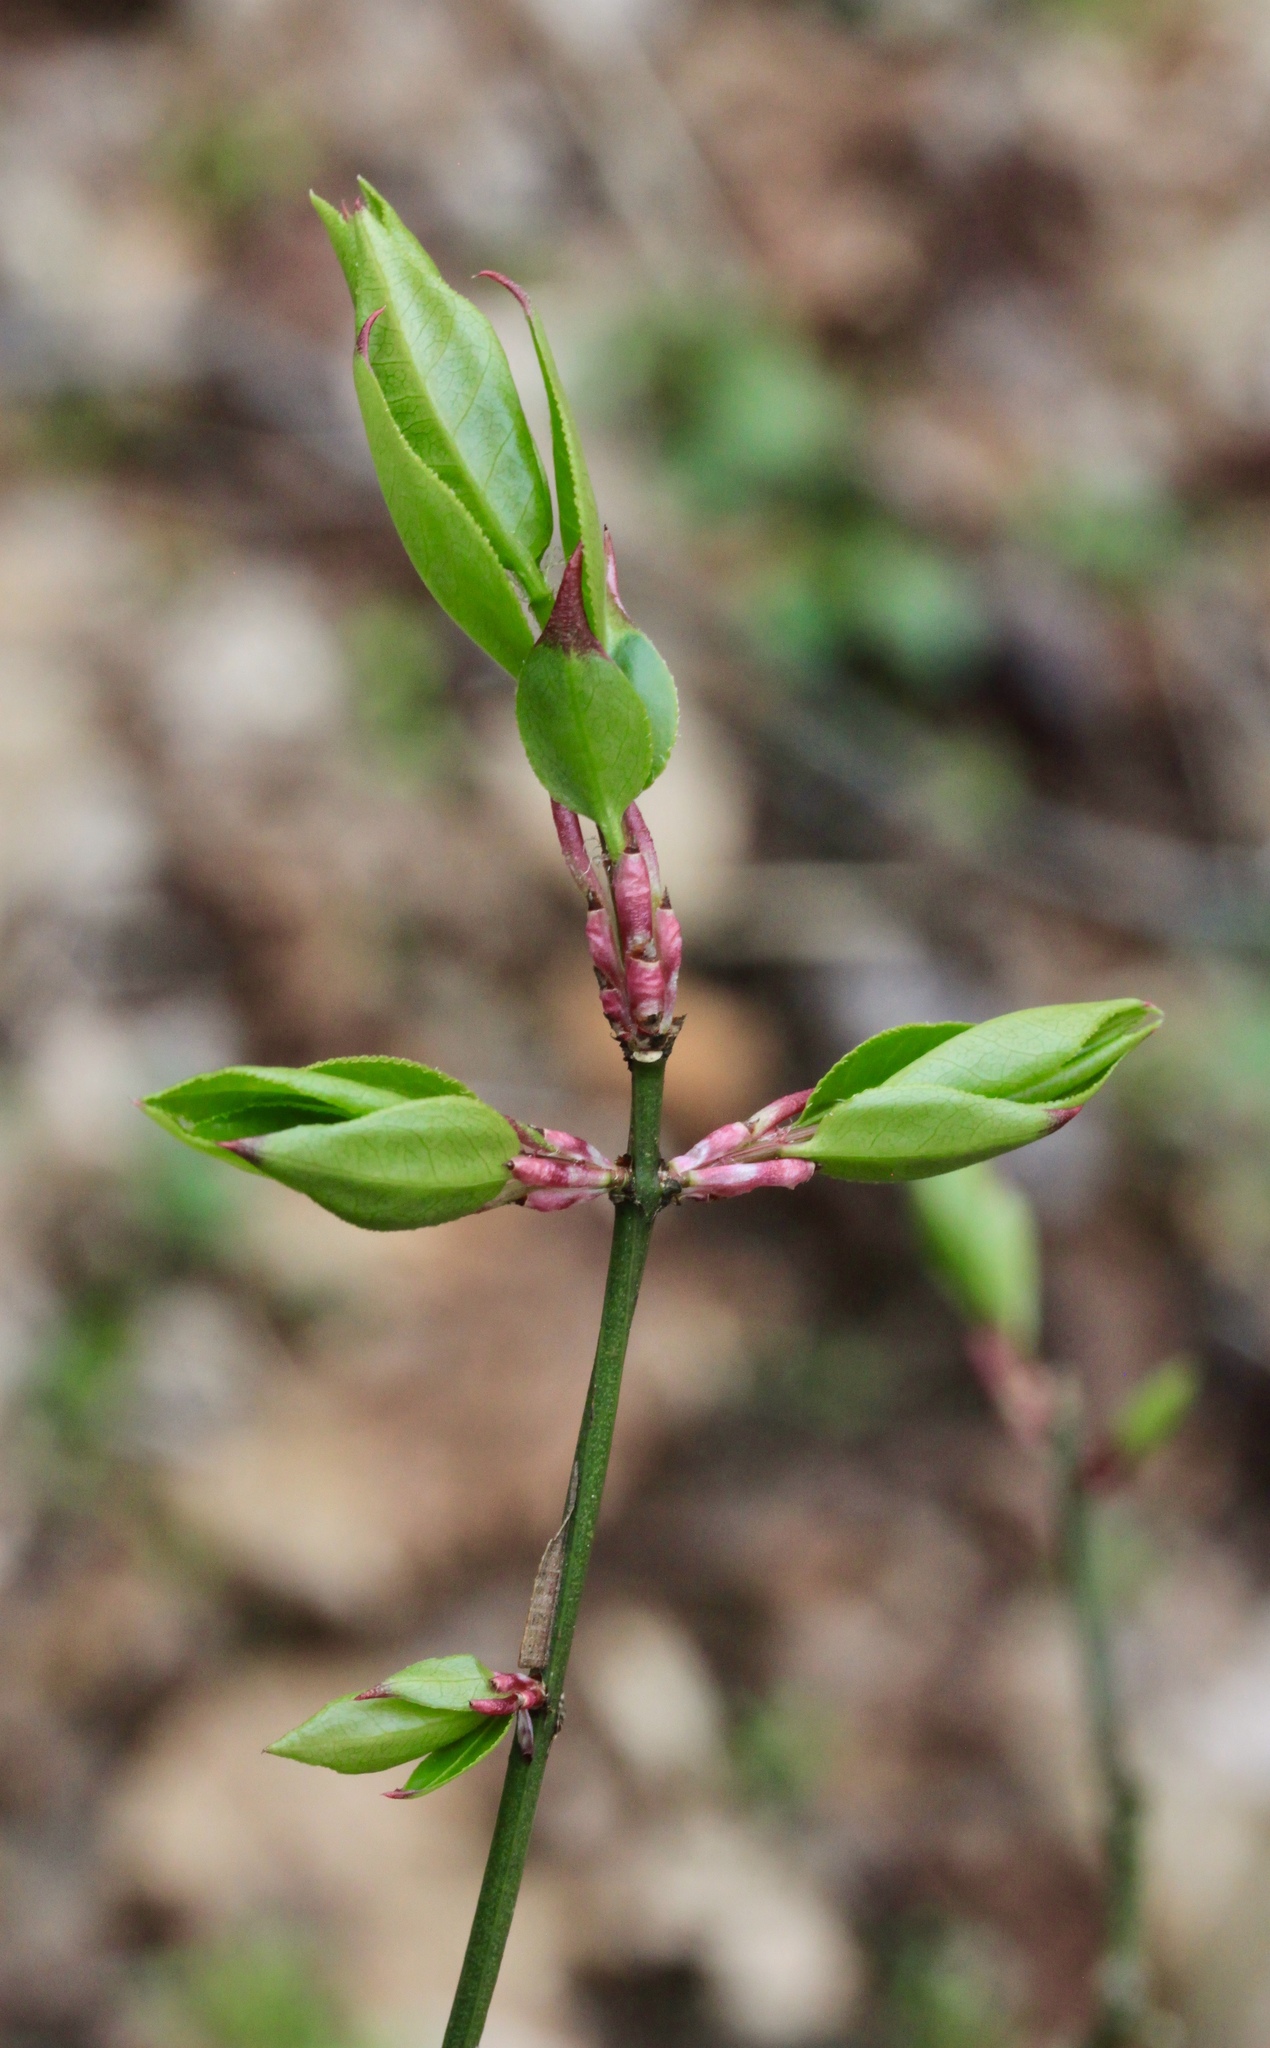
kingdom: Plantae
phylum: Tracheophyta
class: Magnoliopsida
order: Celastrales
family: Celastraceae
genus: Euonymus
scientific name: Euonymus alatus
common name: Winged euonymus
